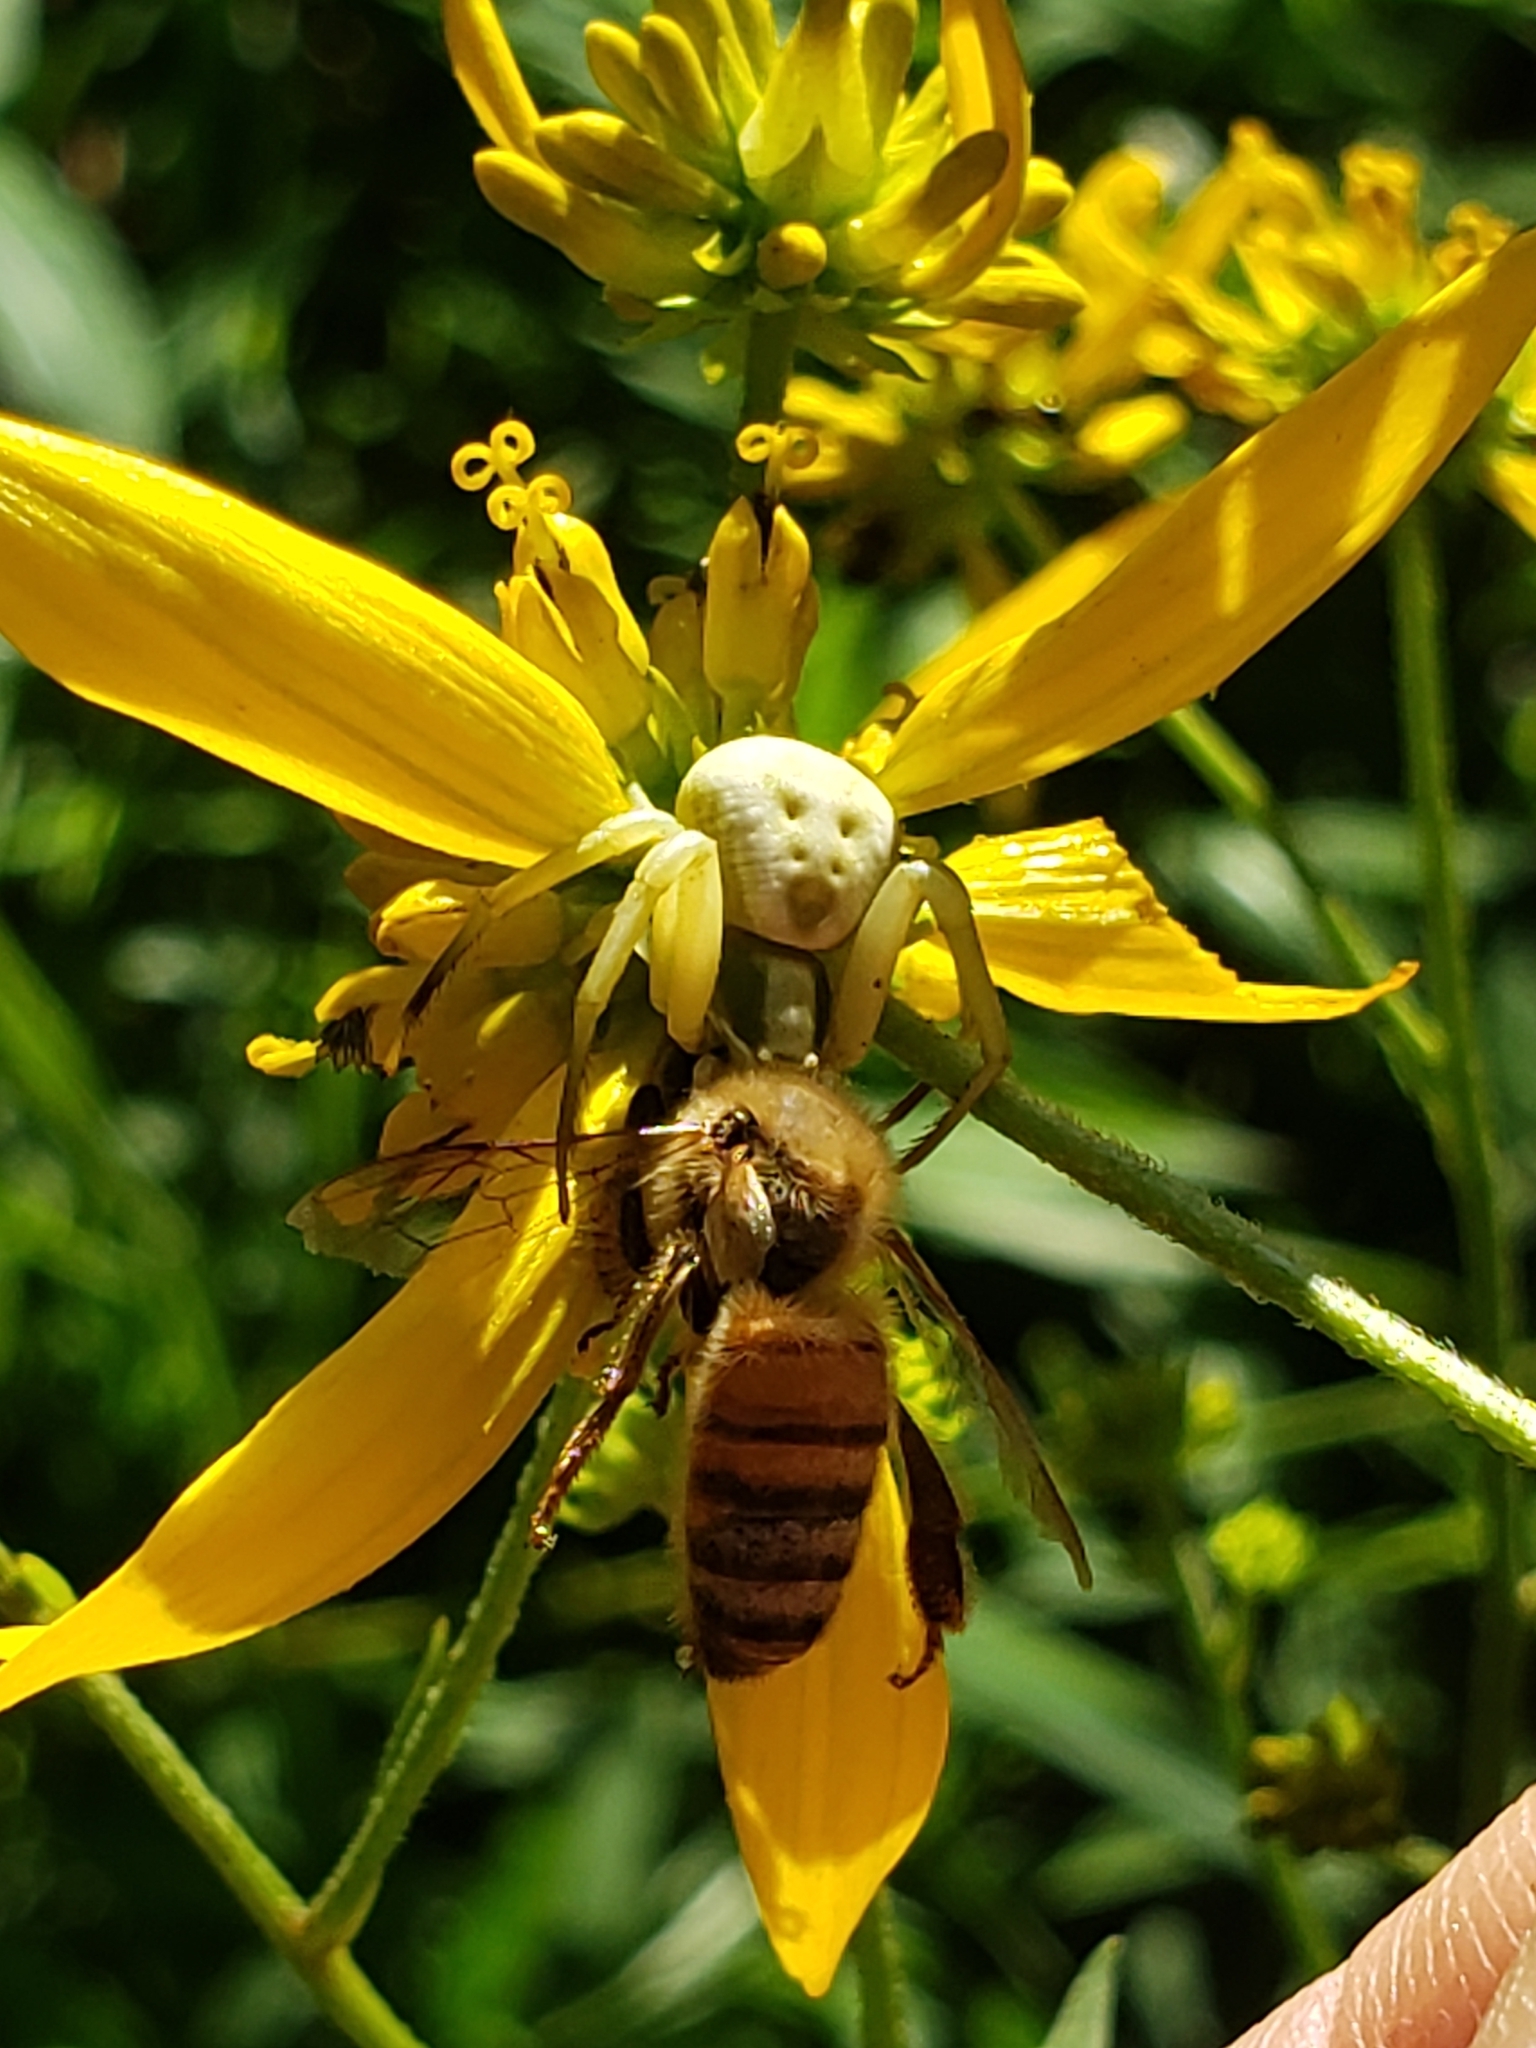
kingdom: Animalia
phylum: Arthropoda
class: Arachnida
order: Araneae
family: Thomisidae
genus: Misumenoides
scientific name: Misumenoides formosipes
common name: White-banded crab spider
